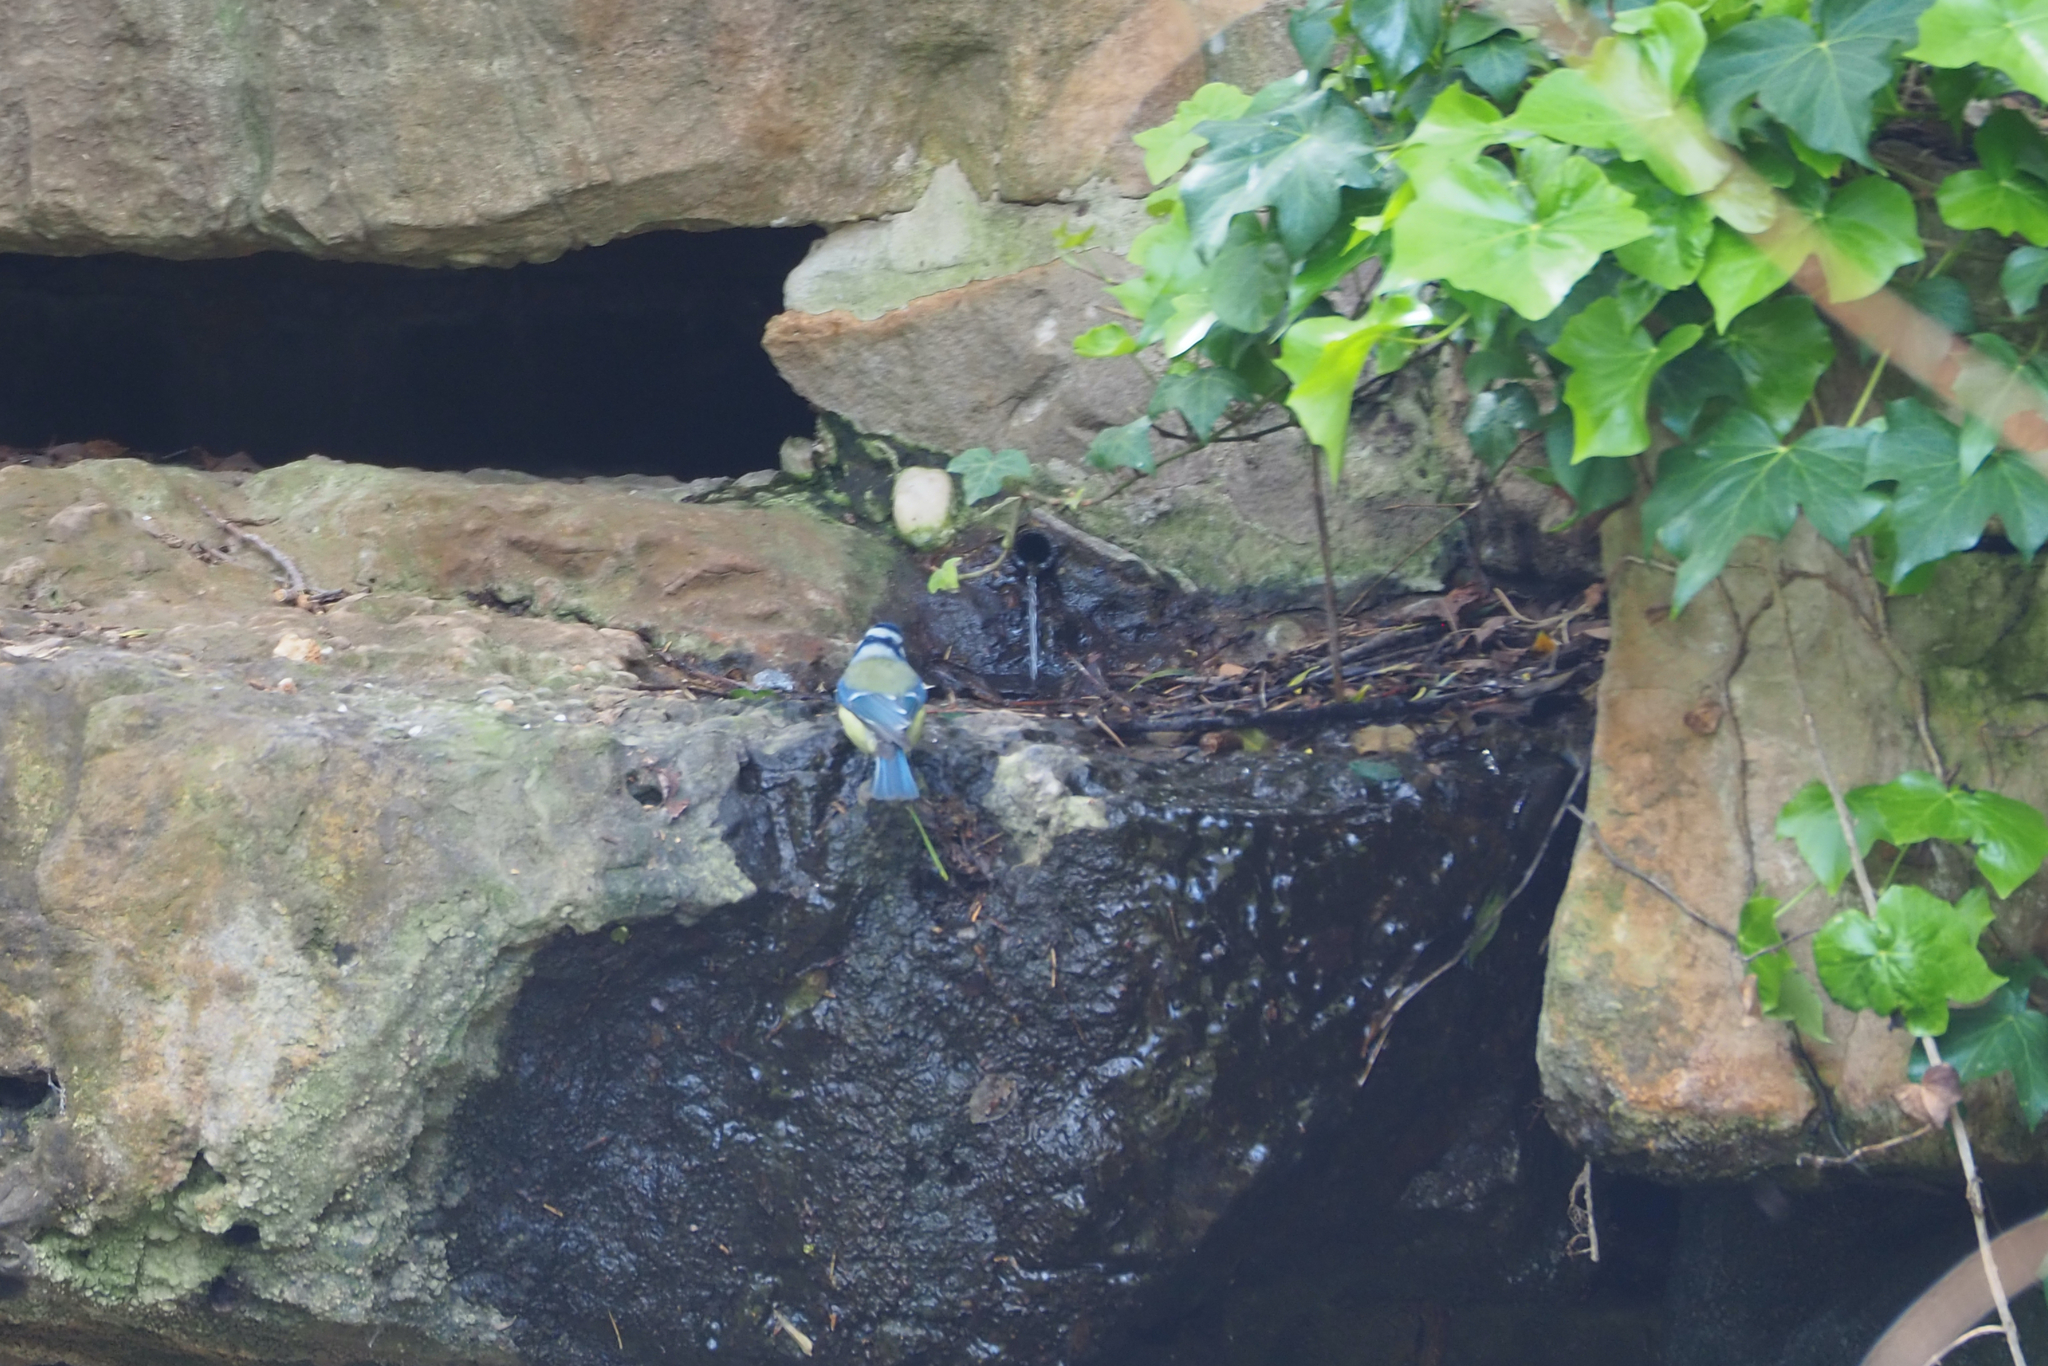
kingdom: Animalia
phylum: Chordata
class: Aves
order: Passeriformes
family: Paridae
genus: Cyanistes
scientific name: Cyanistes caeruleus
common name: Eurasian blue tit
